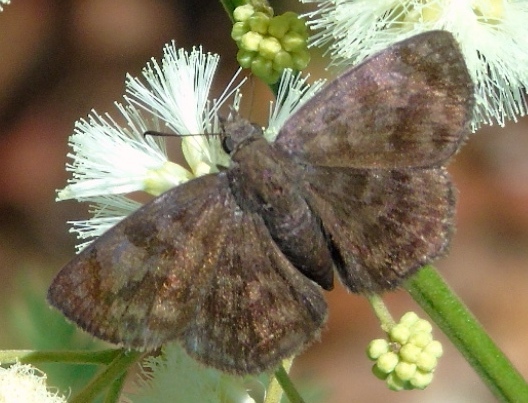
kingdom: Animalia
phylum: Arthropoda
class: Insecta
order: Lepidoptera
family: Hesperiidae
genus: Pellicia
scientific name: Pellicia
